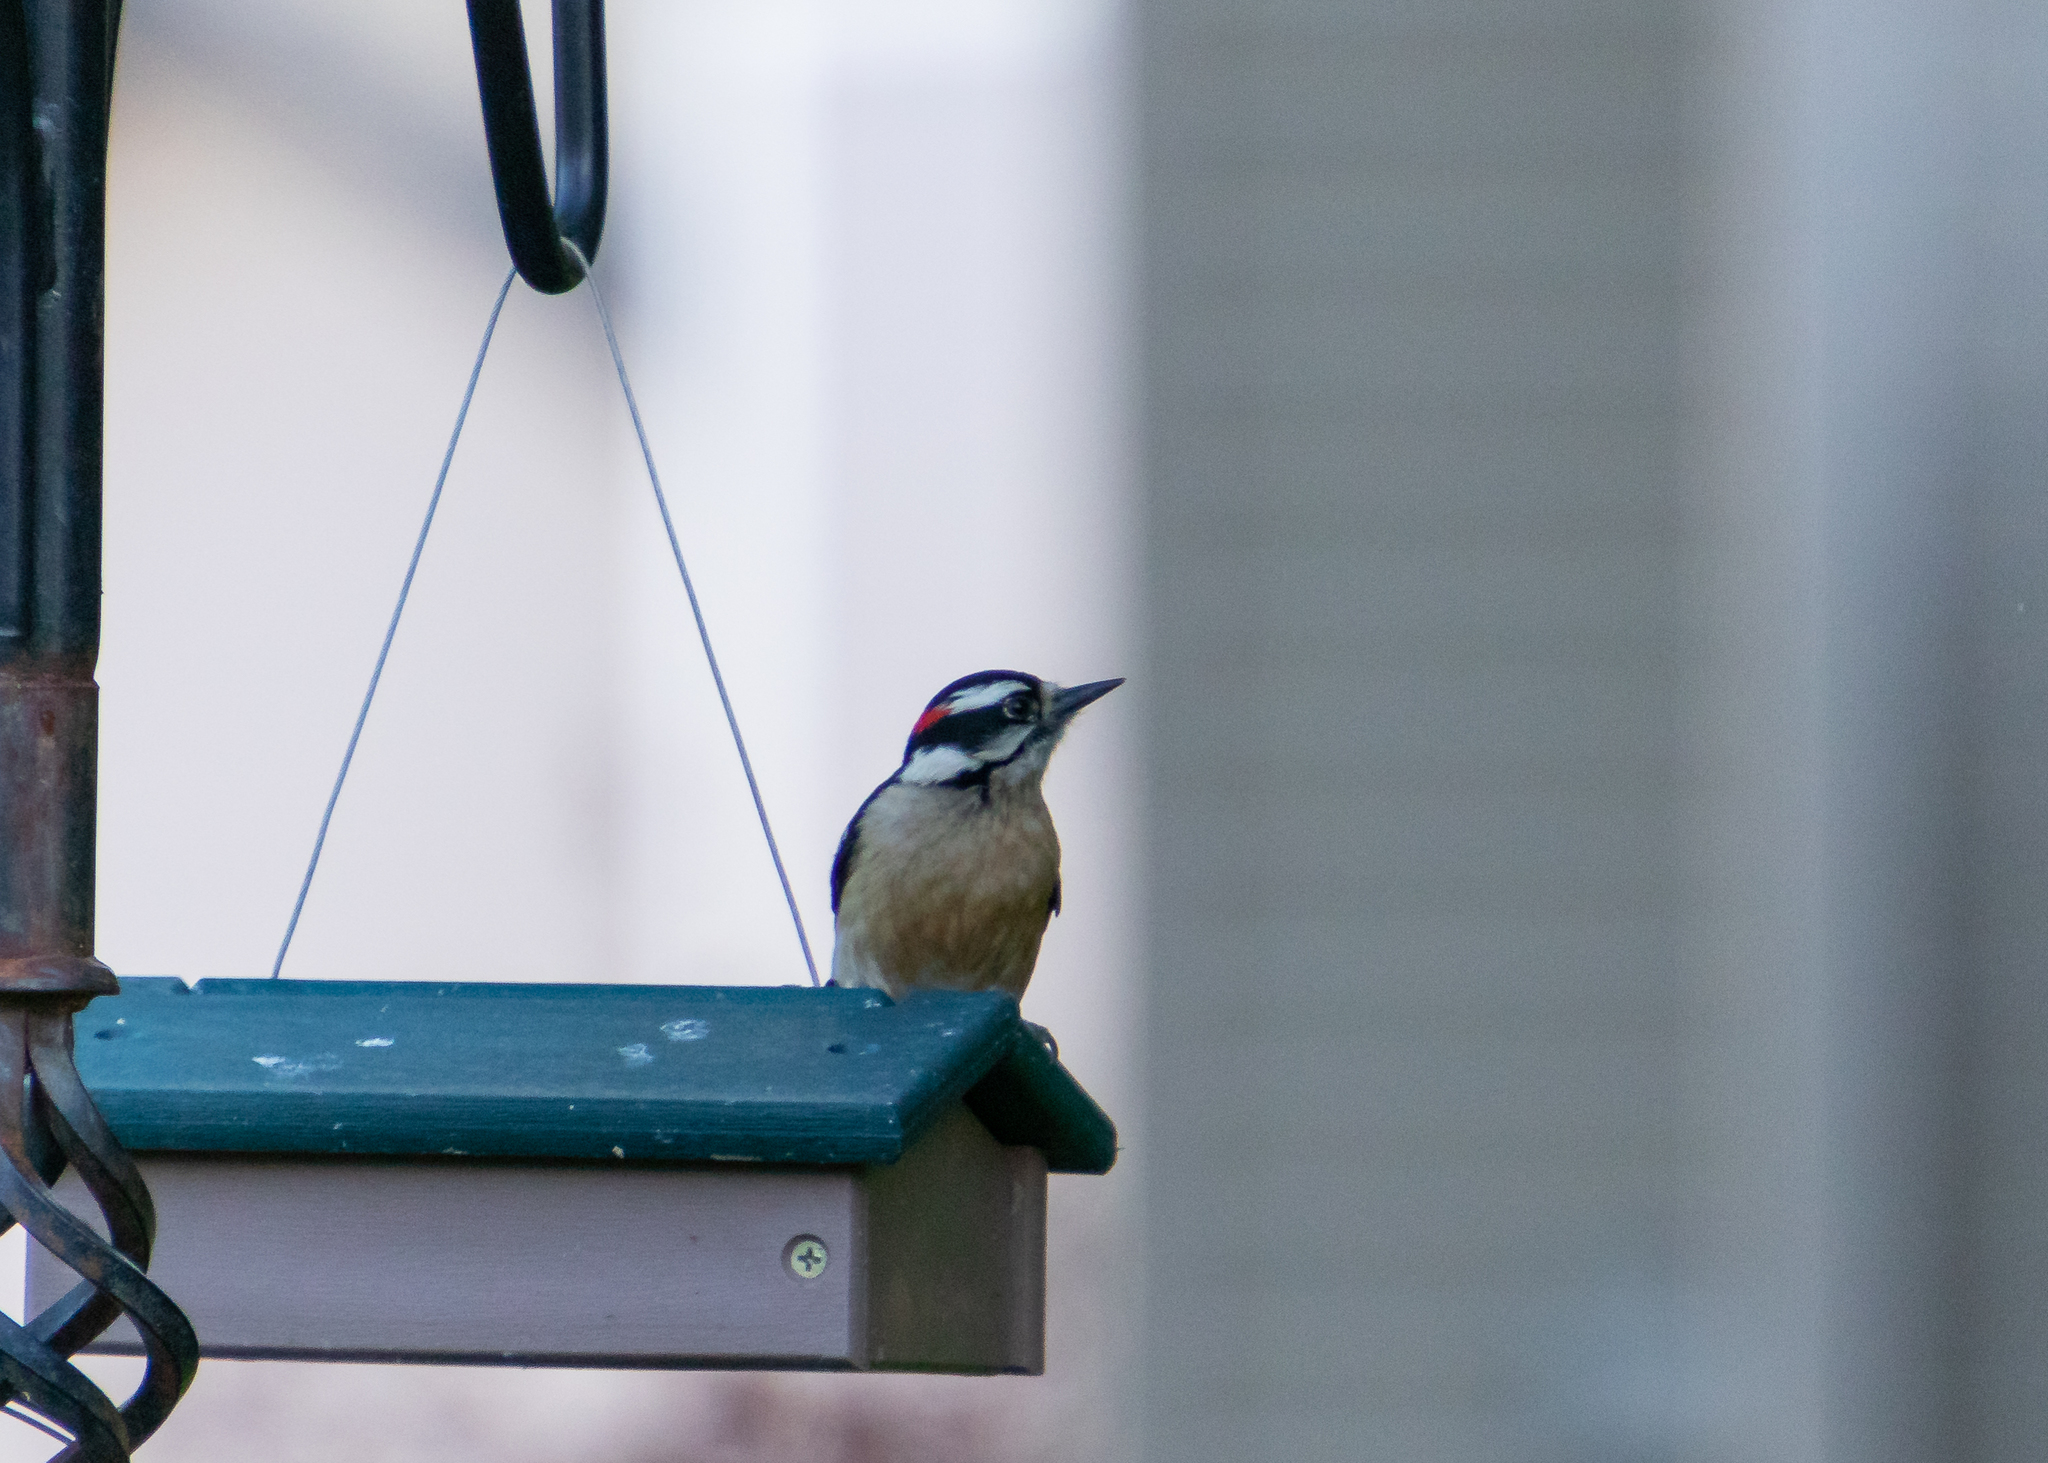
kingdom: Animalia
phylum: Chordata
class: Aves
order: Piciformes
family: Picidae
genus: Dryobates
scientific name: Dryobates pubescens
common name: Downy woodpecker
